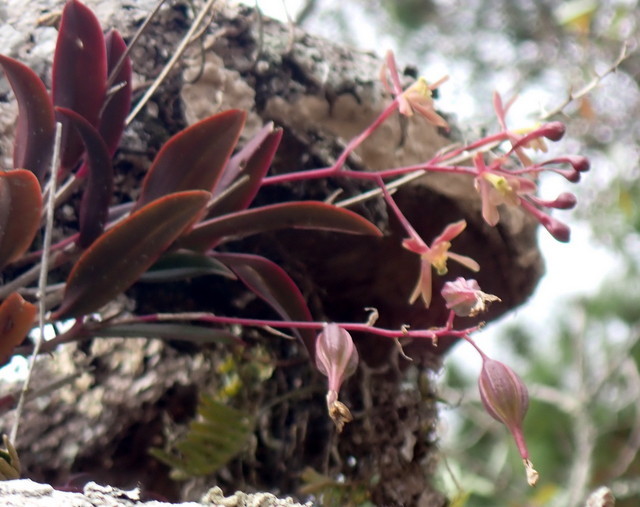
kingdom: Plantae
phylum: Tracheophyta
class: Liliopsida
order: Asparagales
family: Orchidaceae
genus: Epidendrum
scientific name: Epidendrum conopseum
